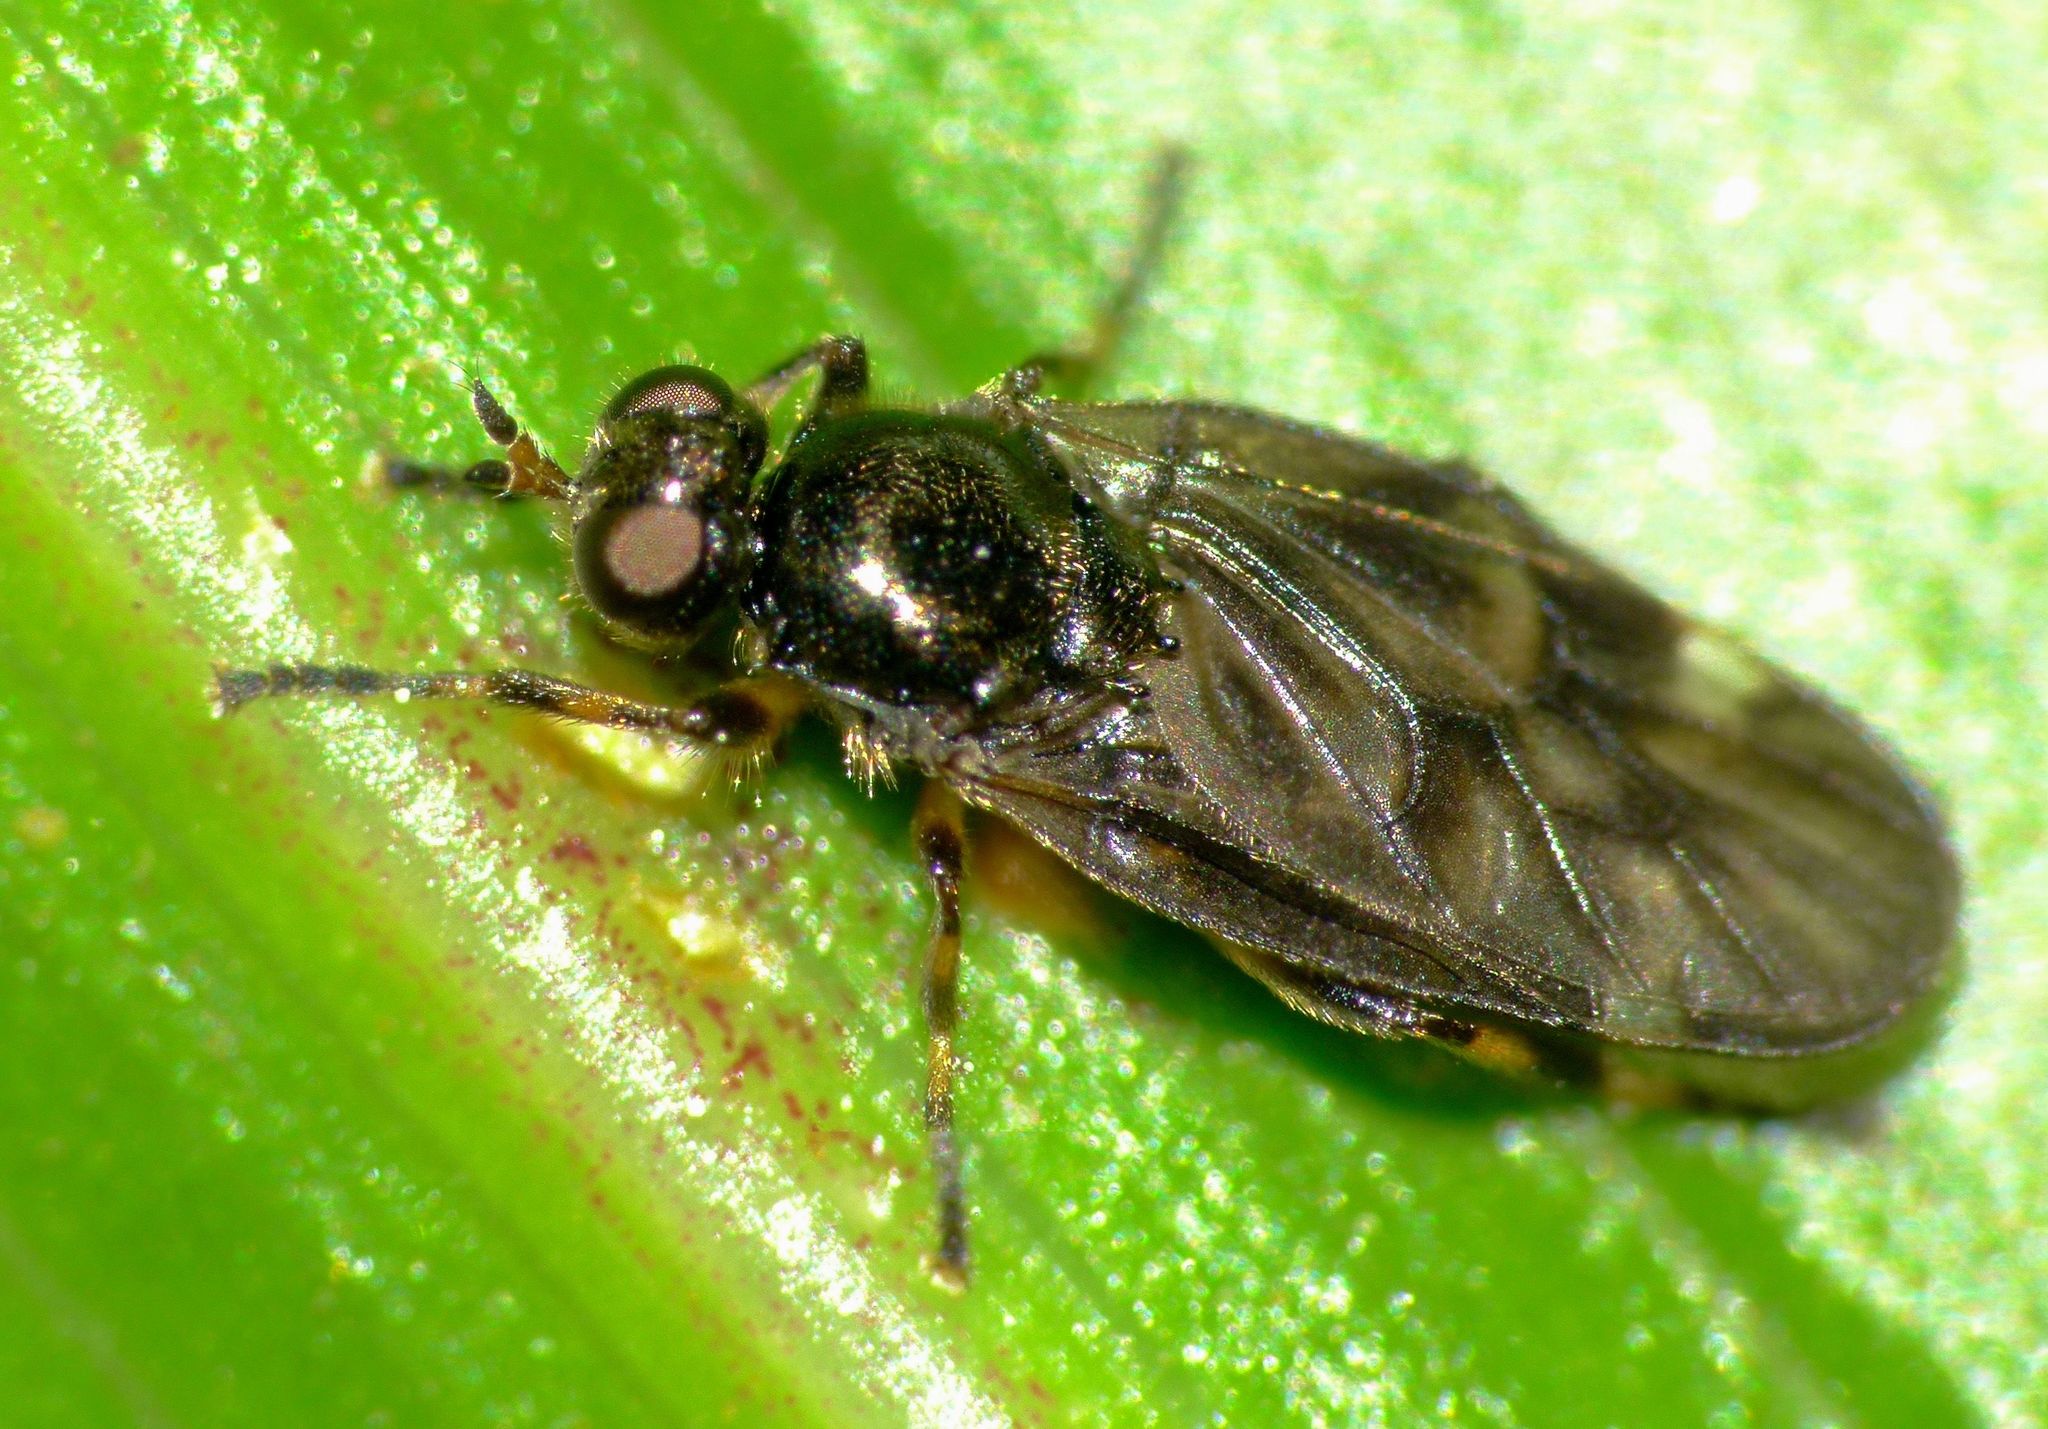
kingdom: Animalia
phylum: Arthropoda
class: Insecta
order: Diptera
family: Stratiomyidae
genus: Berisina
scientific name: Berisina maculipennis
